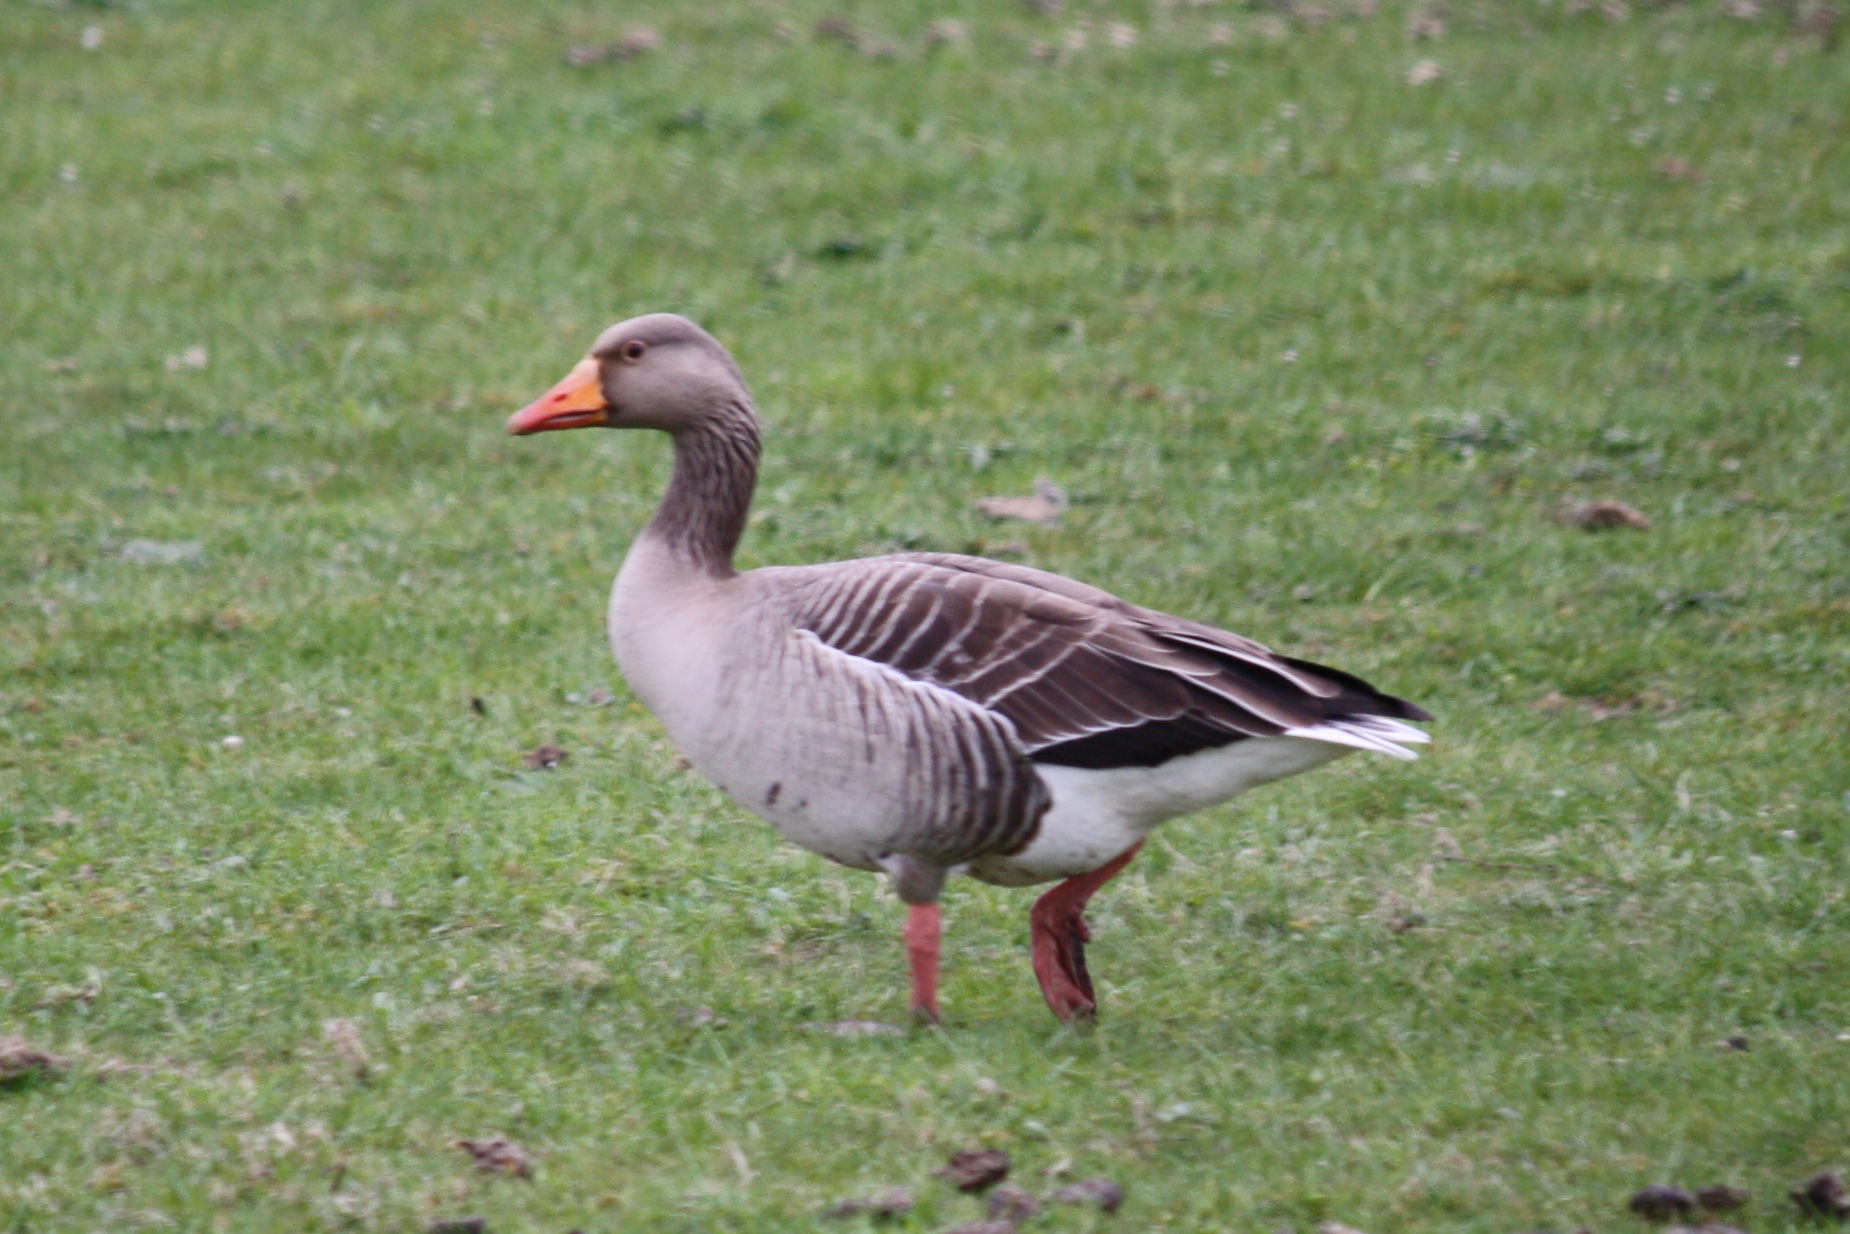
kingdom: Animalia
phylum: Chordata
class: Aves
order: Anseriformes
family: Anatidae
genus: Anser
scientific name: Anser anser
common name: Greylag goose
